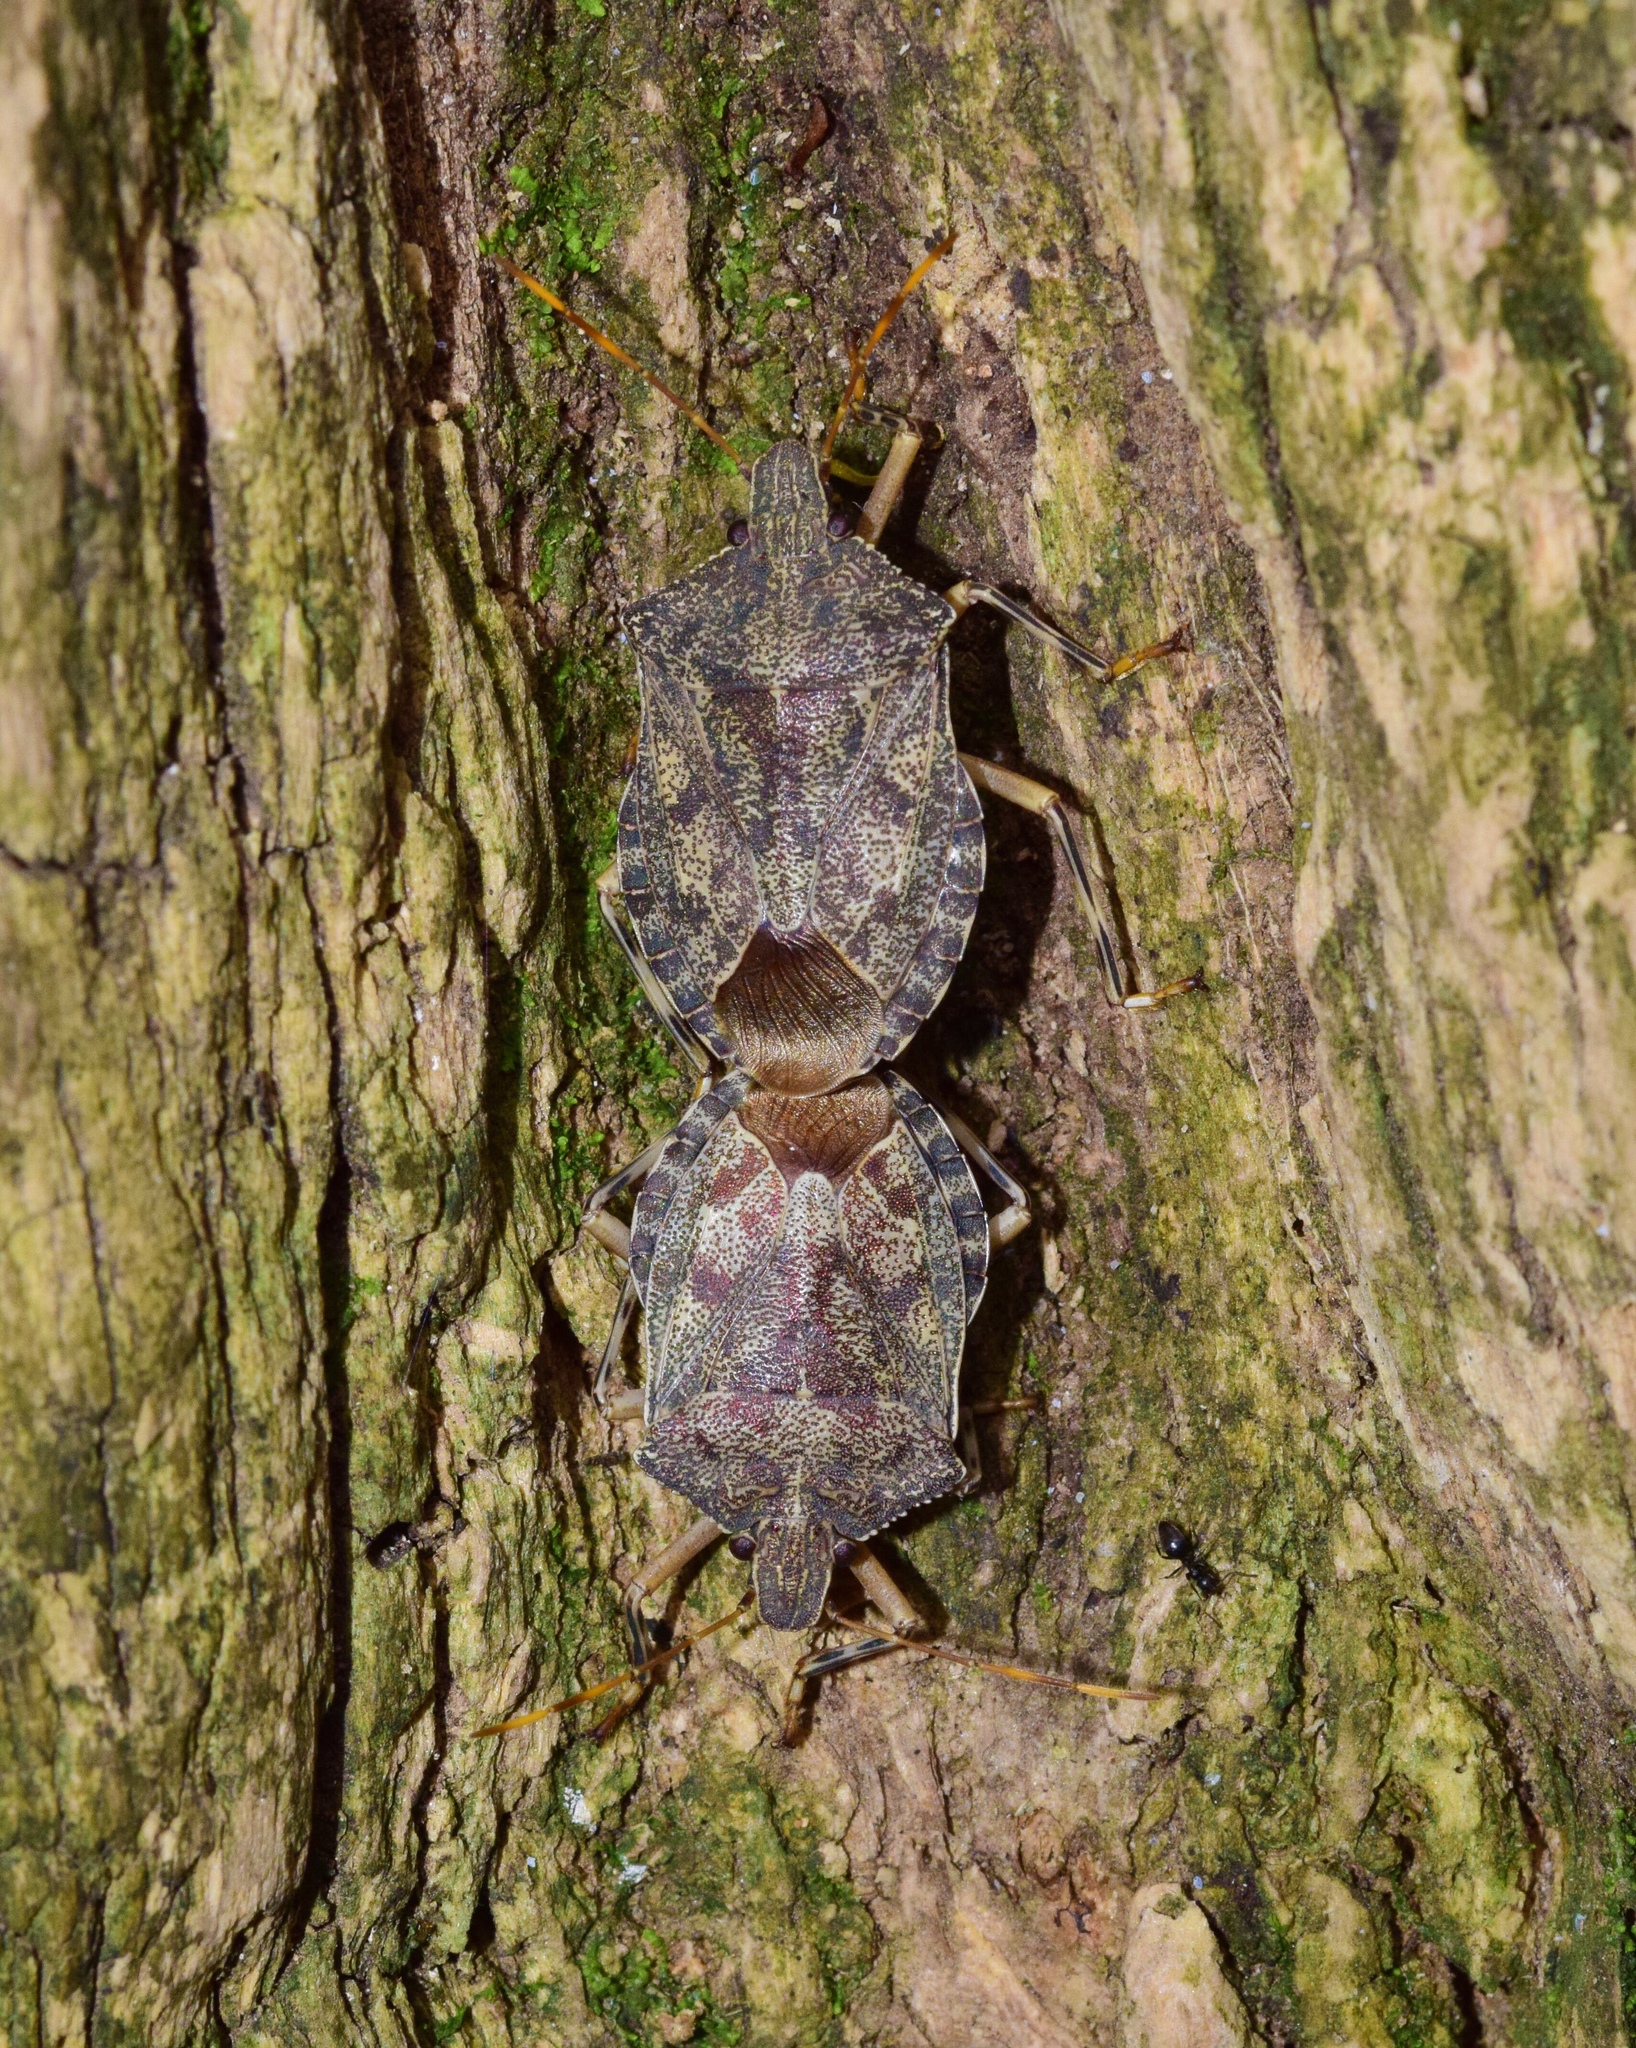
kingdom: Animalia
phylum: Arthropoda
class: Insecta
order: Hemiptera
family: Pentatomidae
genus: Coenomorpha
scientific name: Coenomorpha
